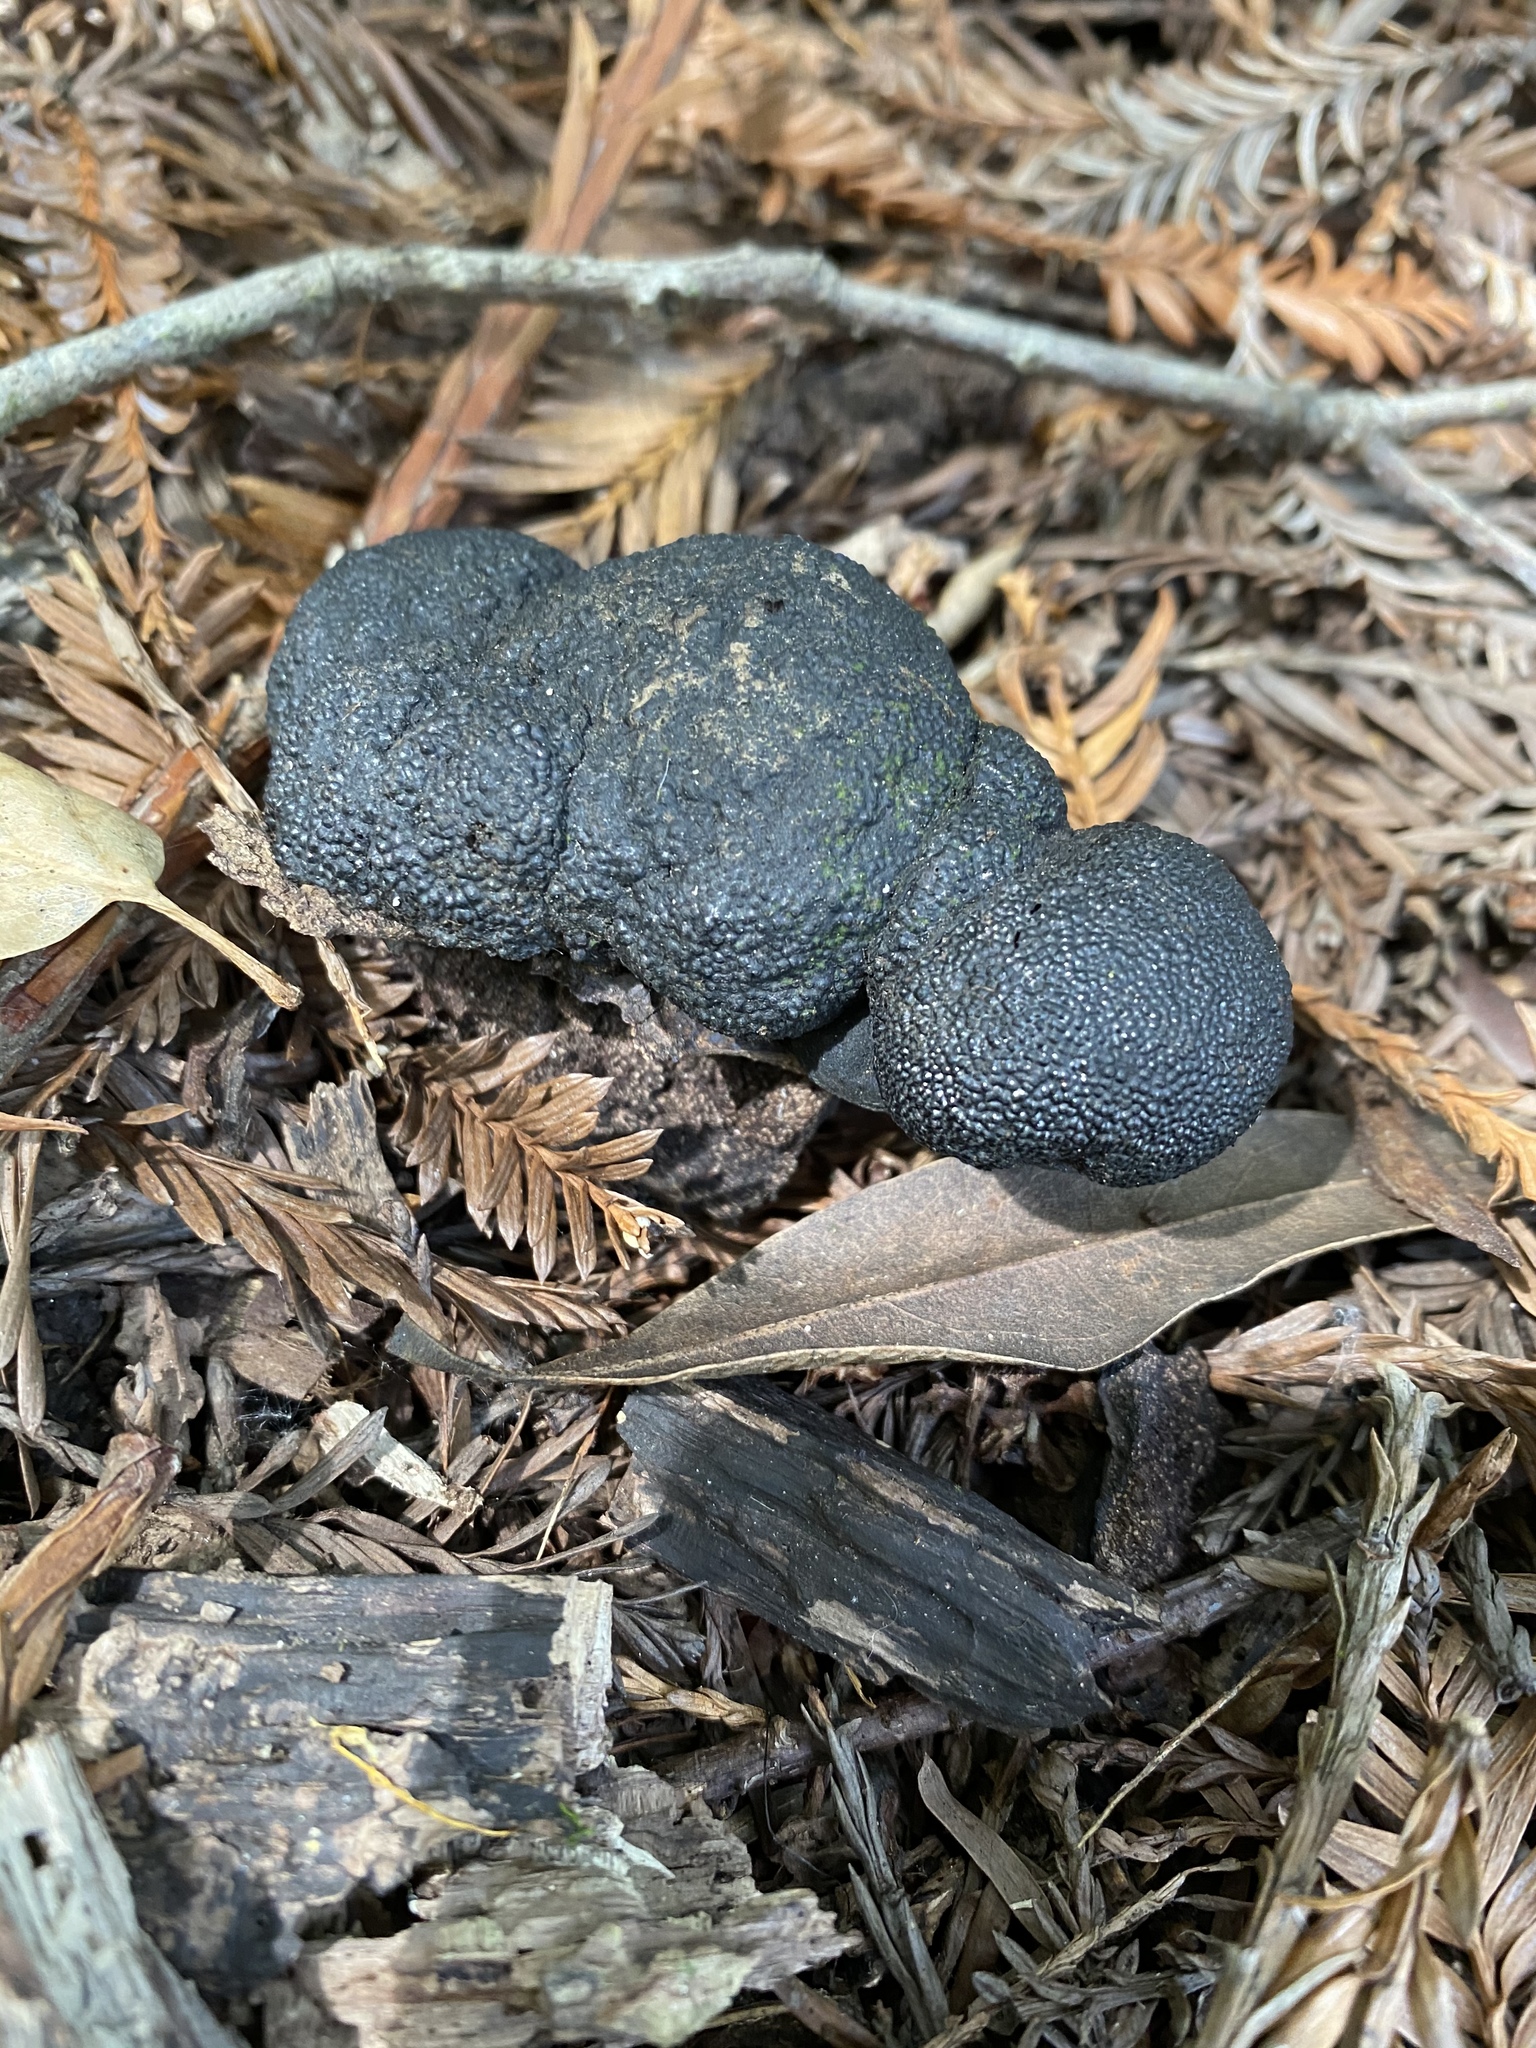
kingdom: Fungi
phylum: Ascomycota
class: Sordariomycetes
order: Xylariales
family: Hypoxylaceae
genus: Annulohypoxylon
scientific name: Annulohypoxylon thouarsianum
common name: Cramp balls
